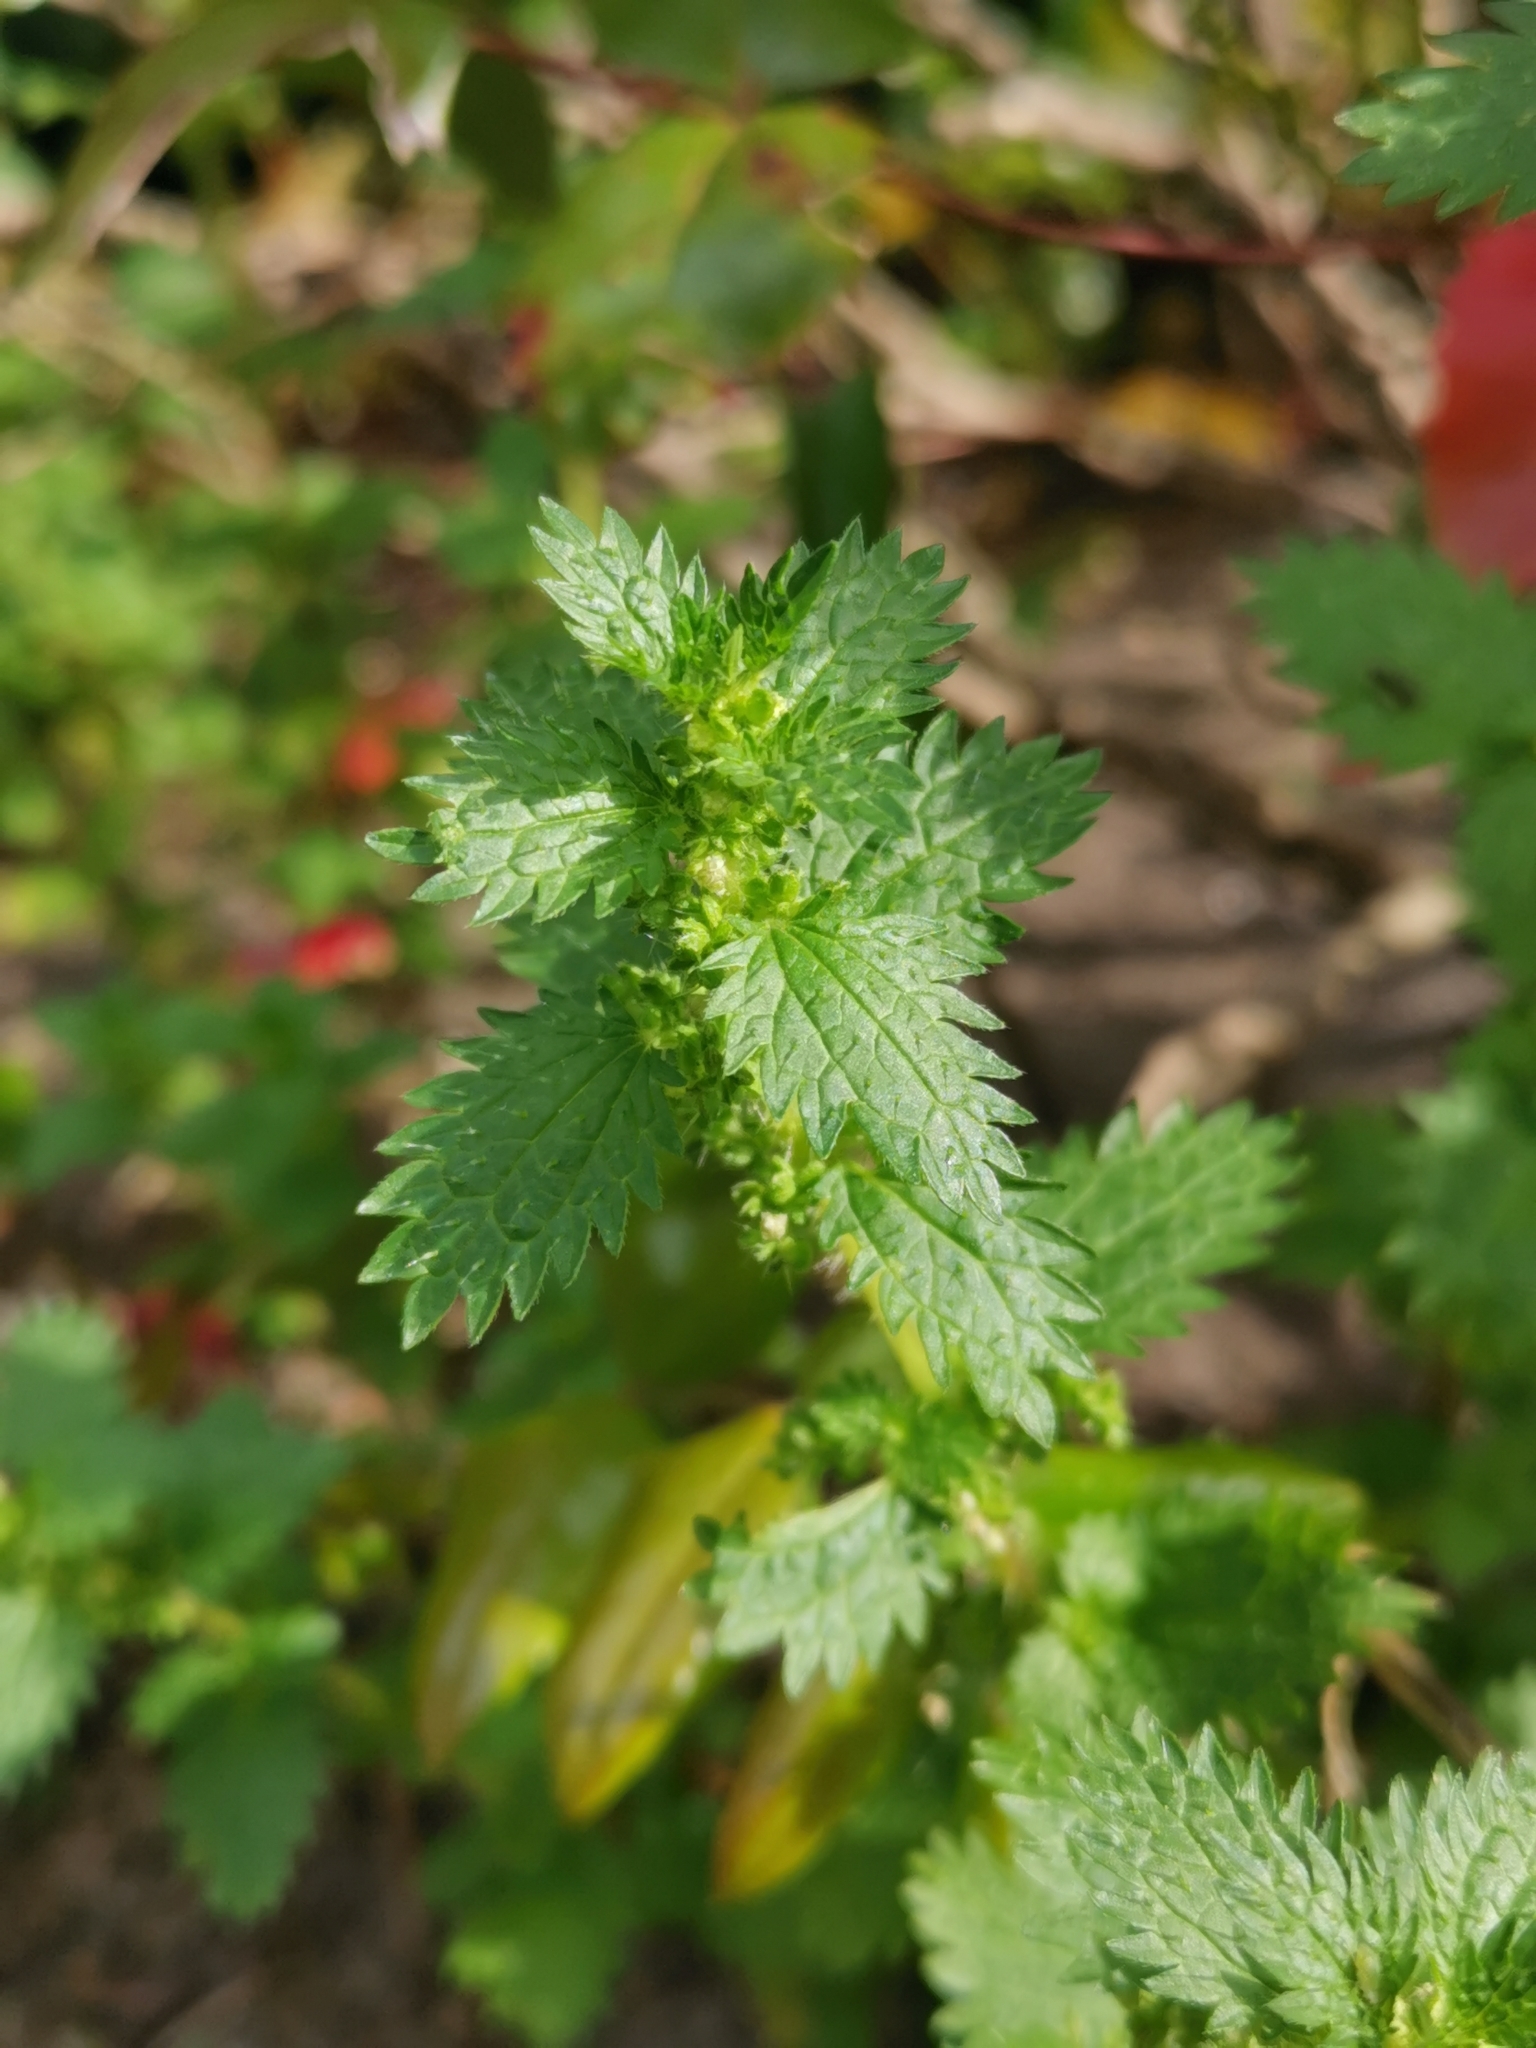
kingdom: Plantae
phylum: Tracheophyta
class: Magnoliopsida
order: Rosales
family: Urticaceae
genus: Urtica
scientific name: Urtica urens
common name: Dwarf nettle
